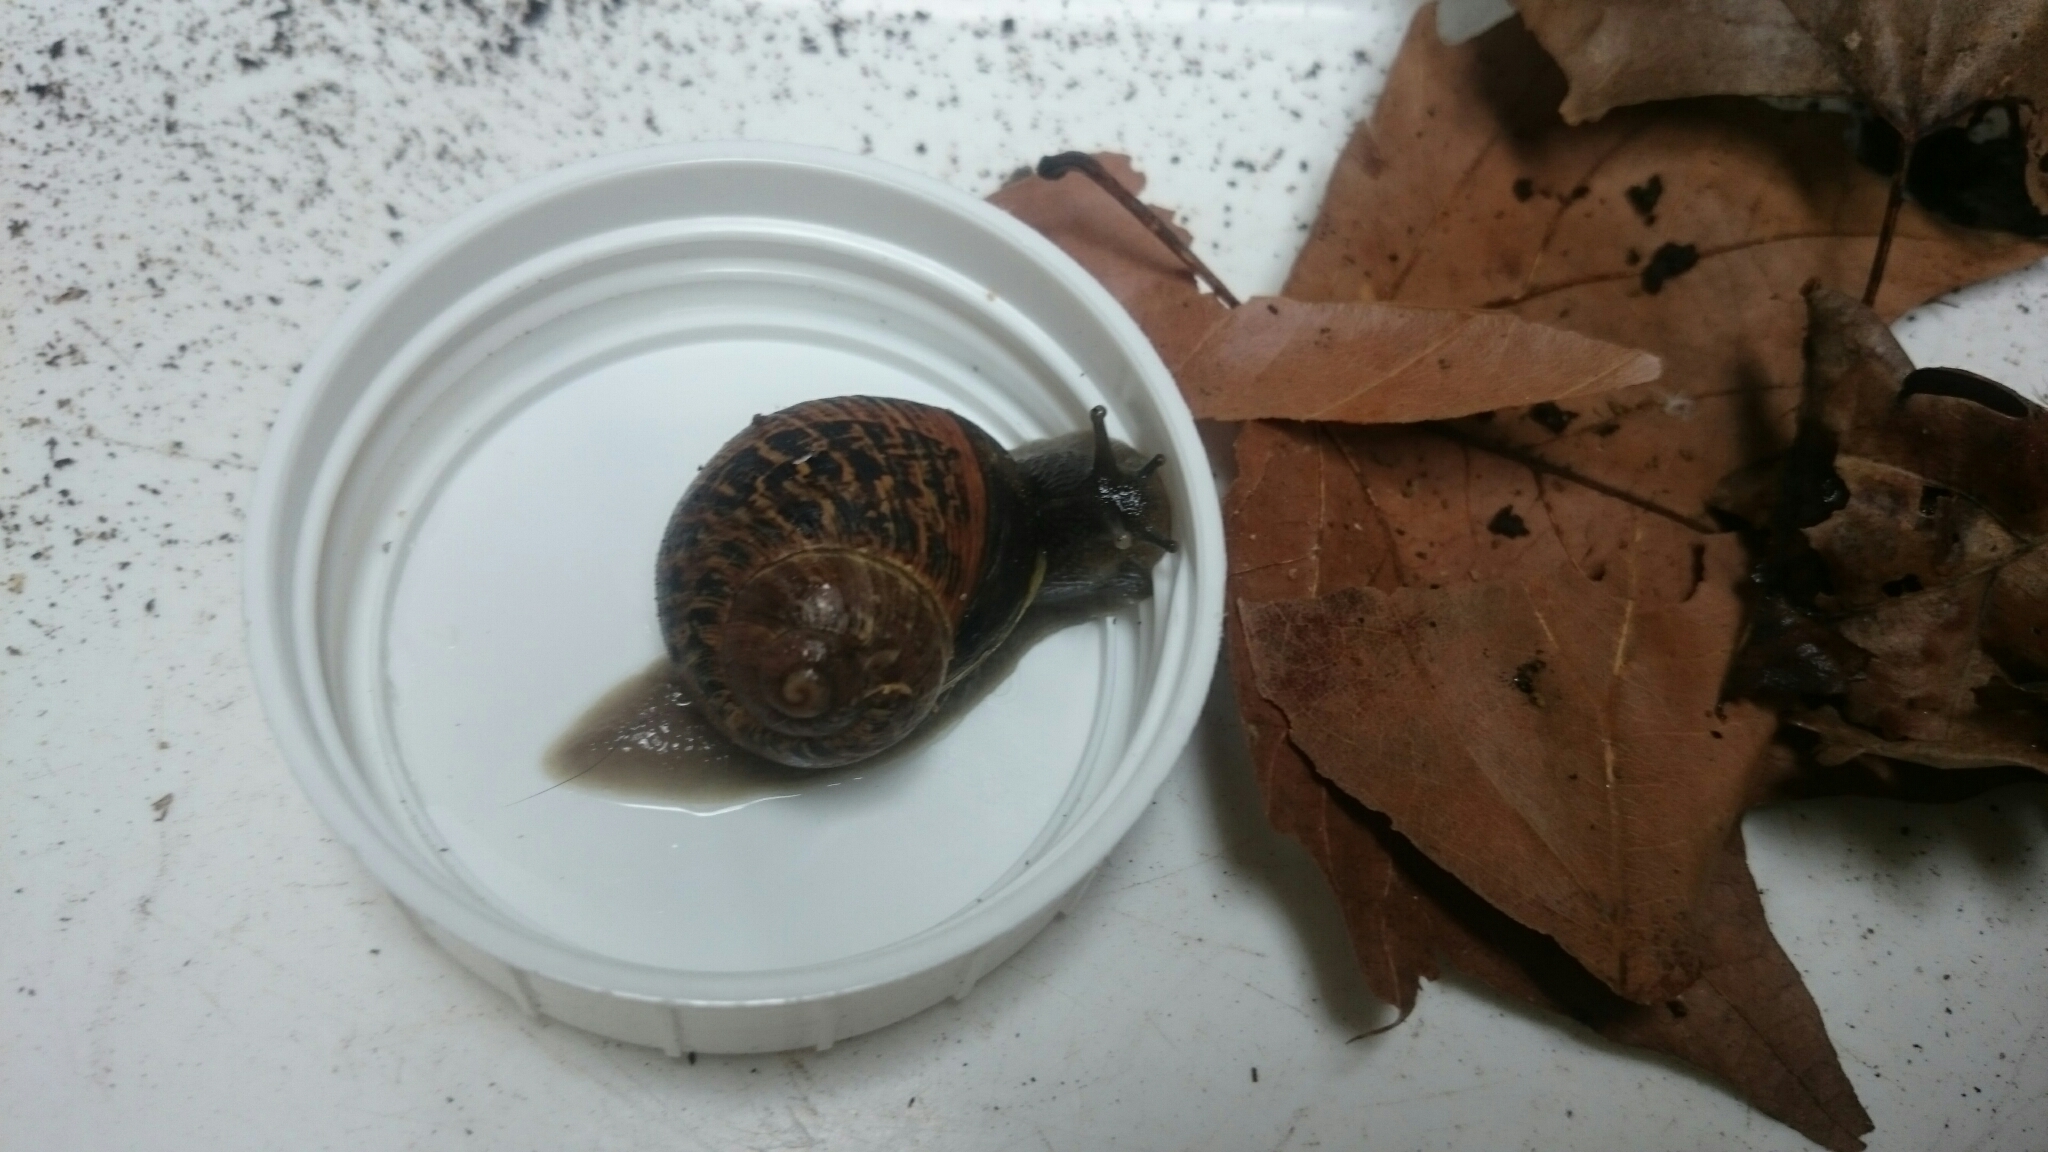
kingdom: Animalia
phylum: Mollusca
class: Gastropoda
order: Stylommatophora
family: Helicidae
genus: Cornu
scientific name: Cornu aspersum
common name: Brown garden snail
